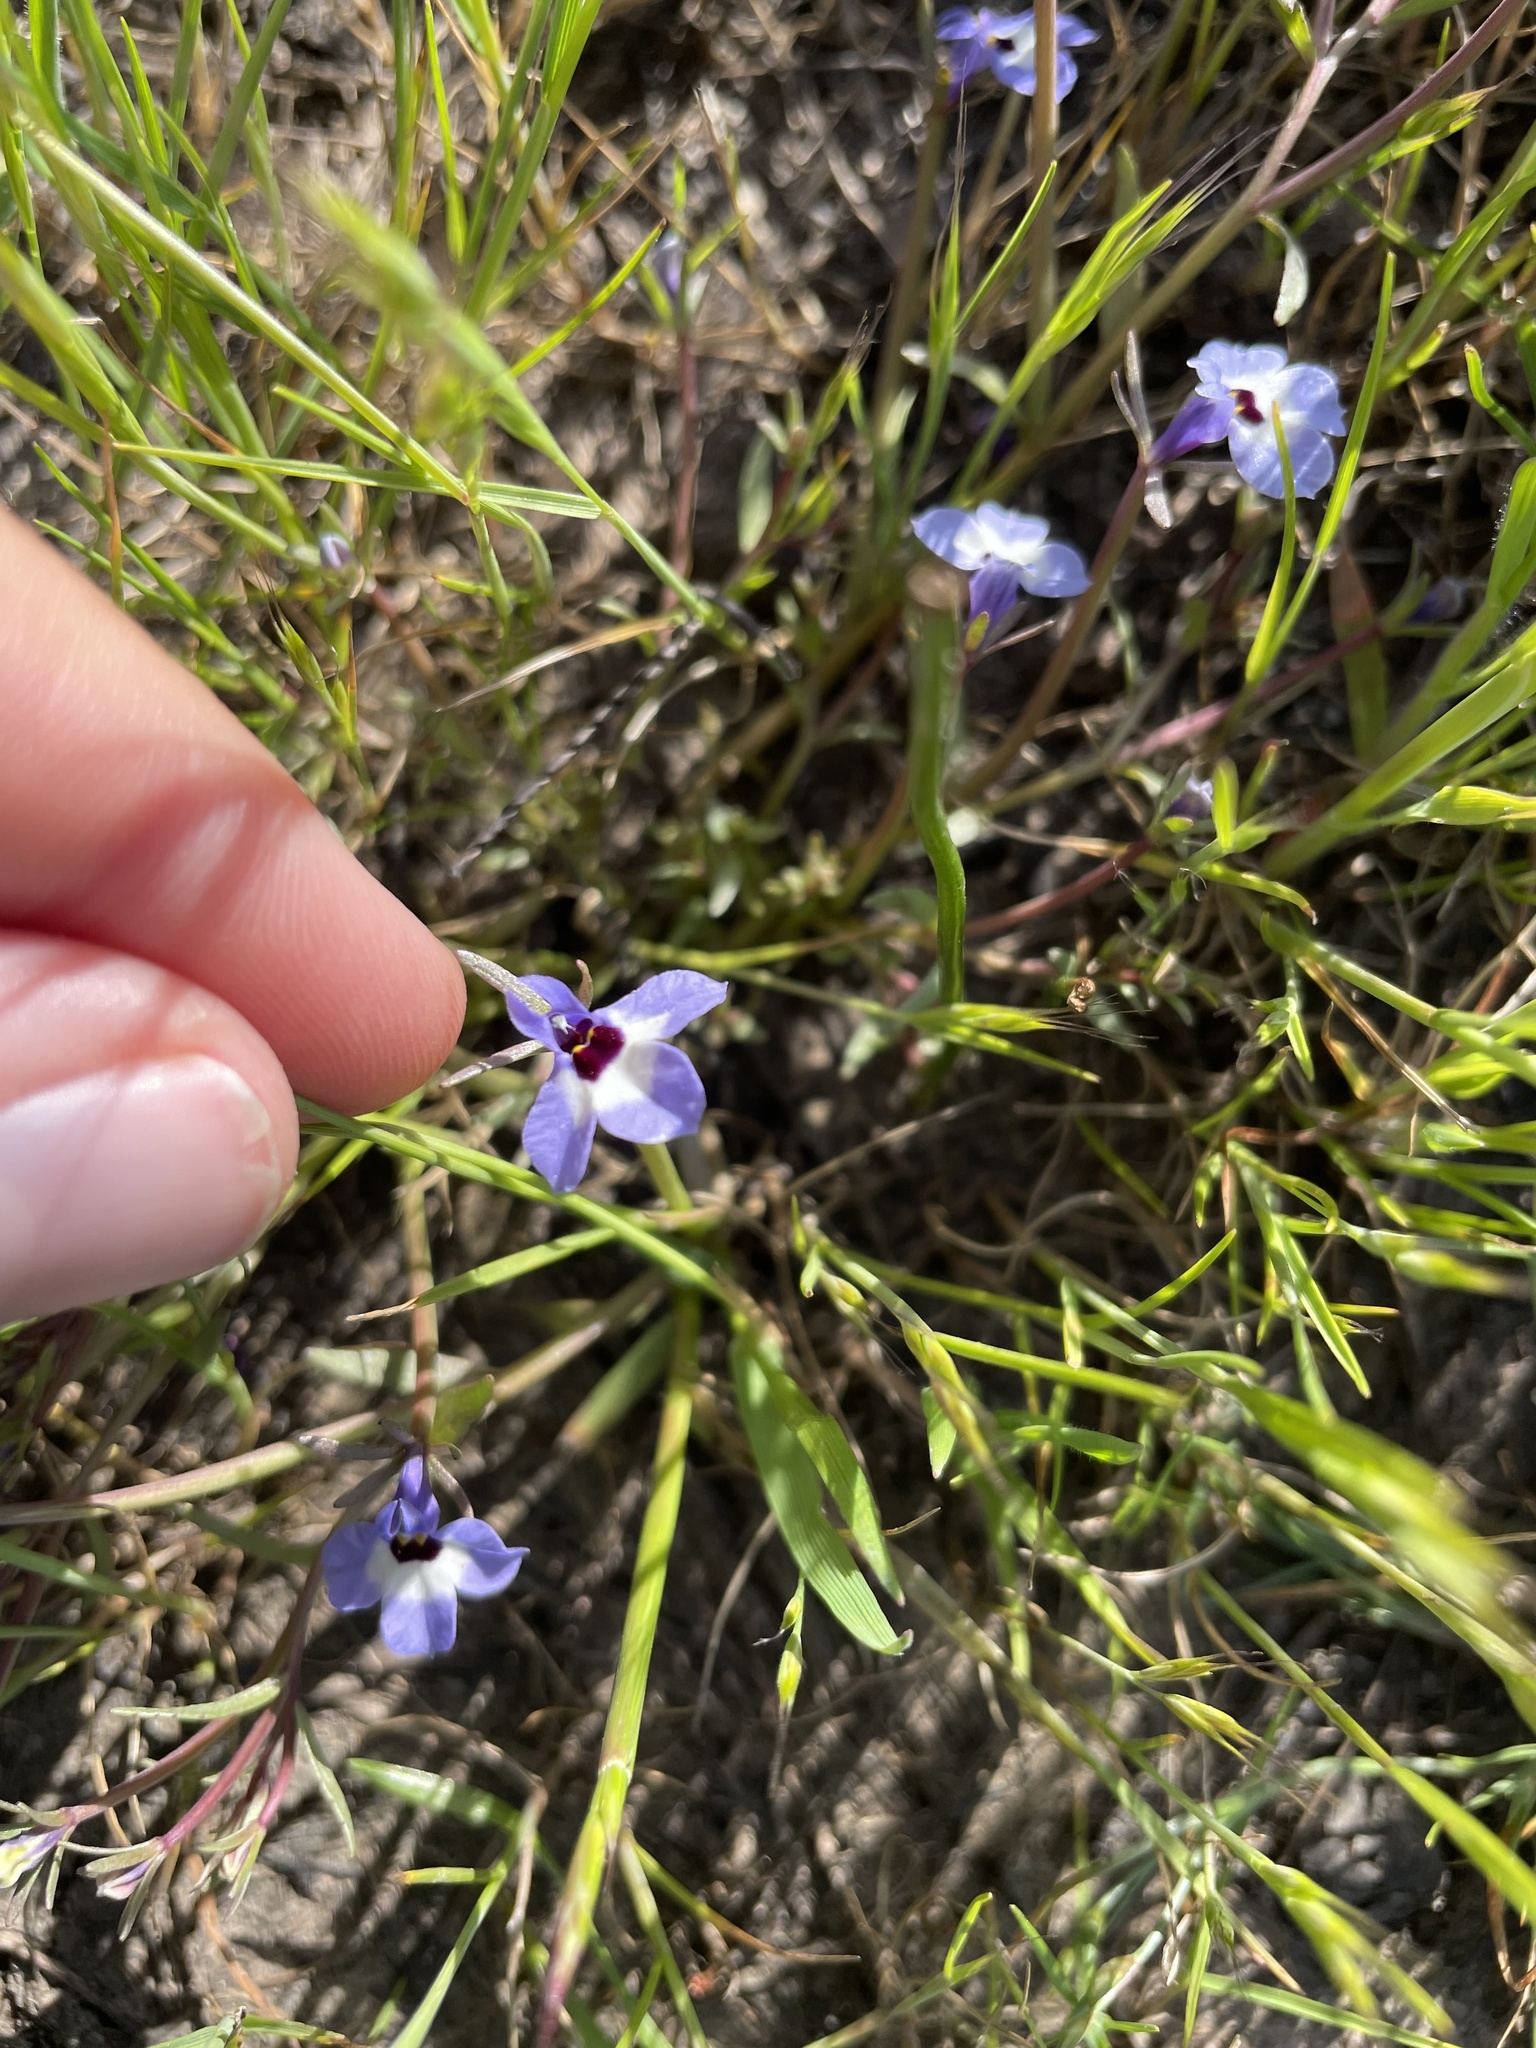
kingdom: Plantae
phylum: Tracheophyta
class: Magnoliopsida
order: Asterales
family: Campanulaceae
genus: Downingia
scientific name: Downingia concolor
